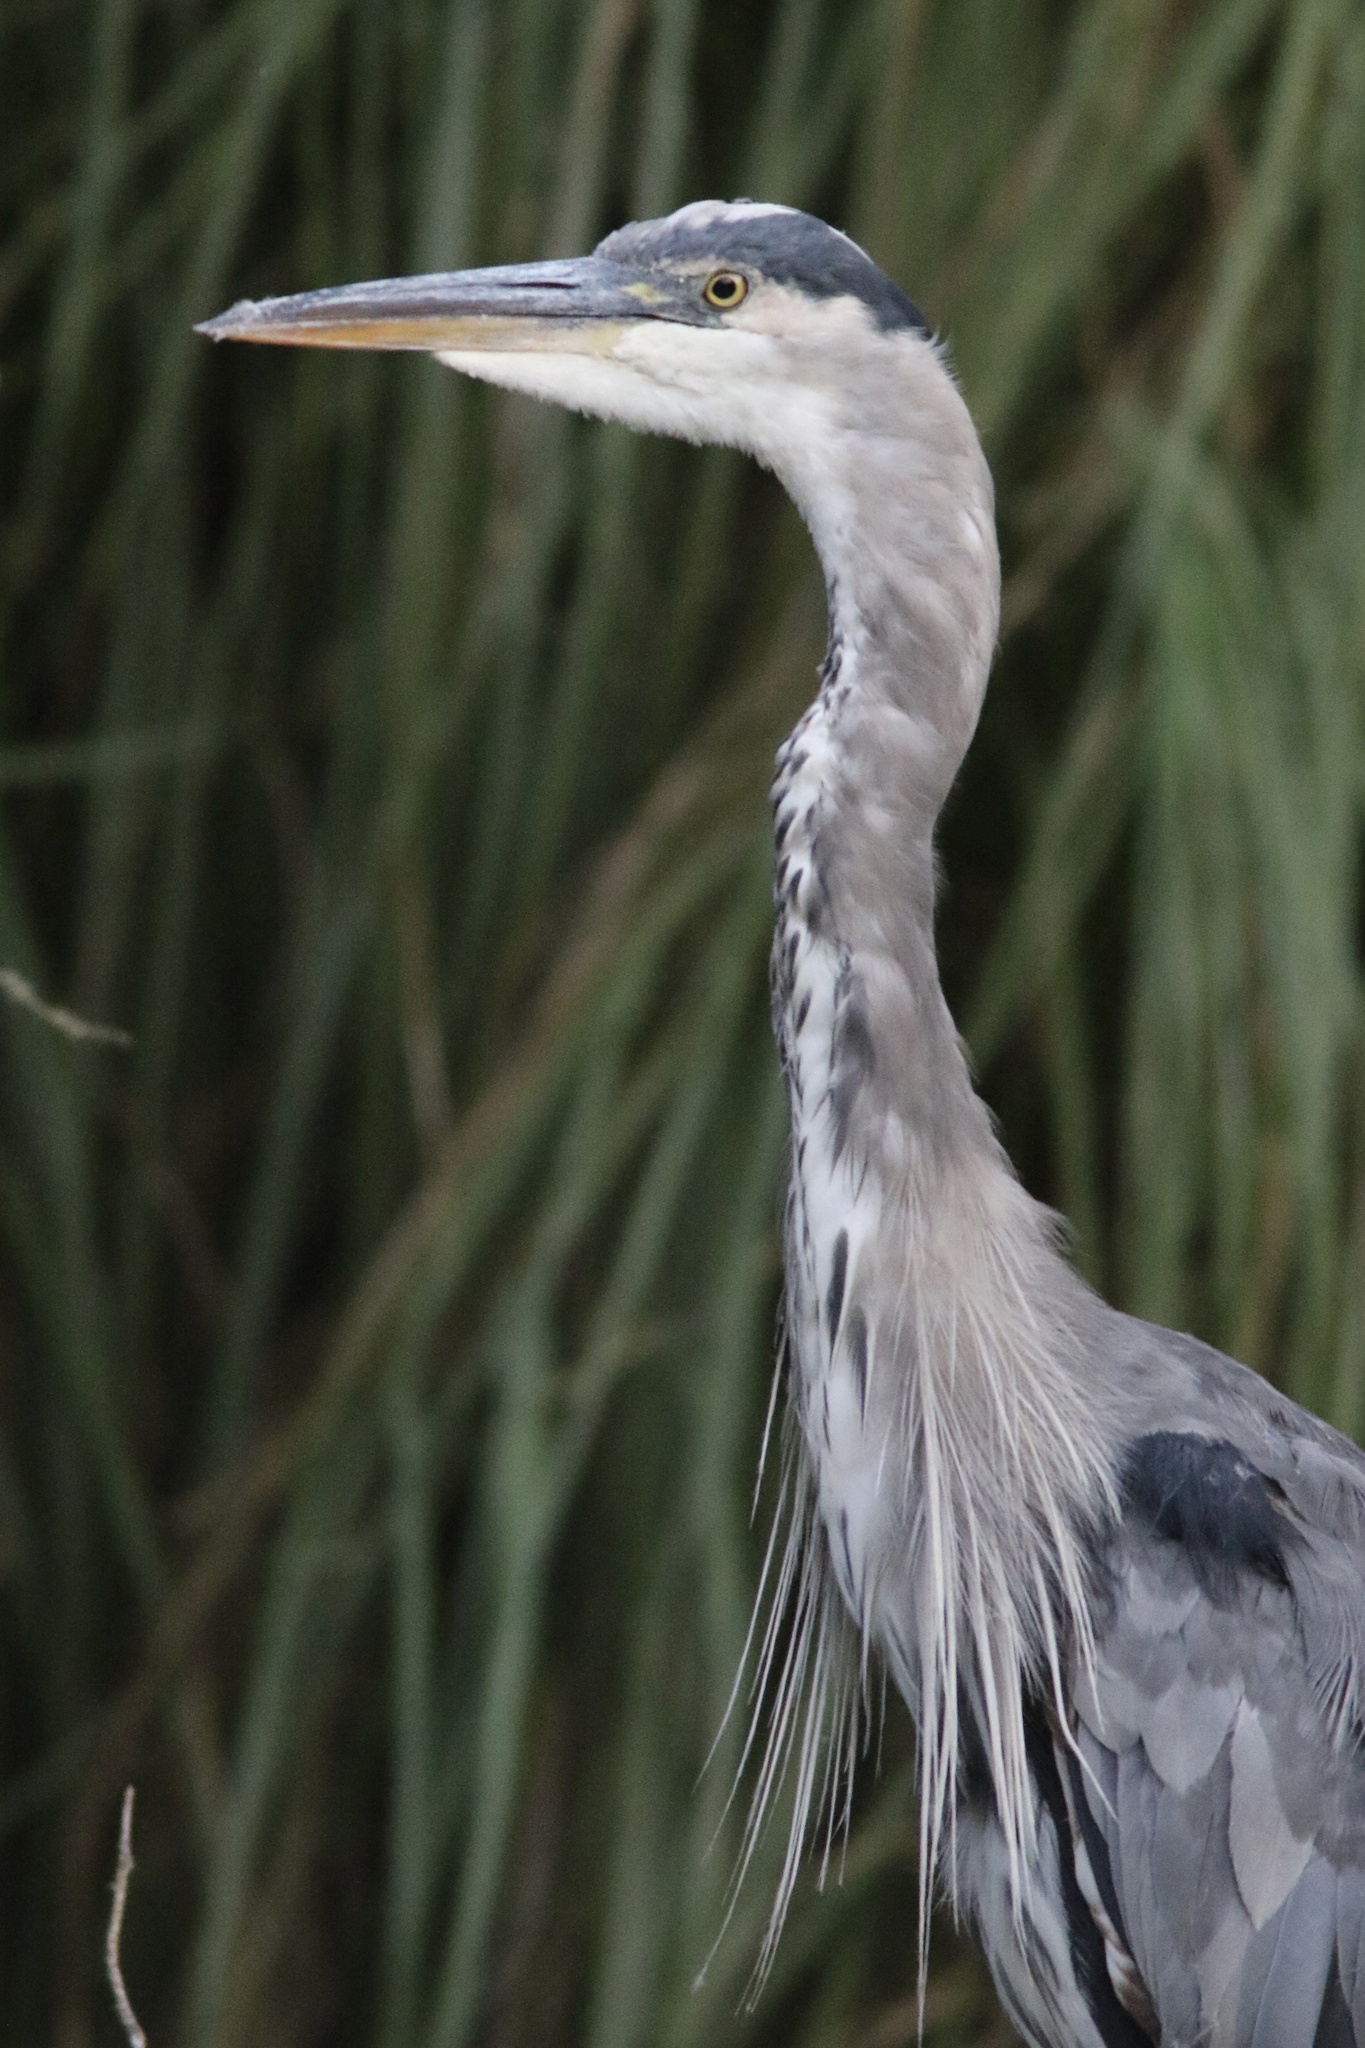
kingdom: Animalia
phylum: Chordata
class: Aves
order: Pelecaniformes
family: Ardeidae
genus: Ardea
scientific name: Ardea herodias
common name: Great blue heron
